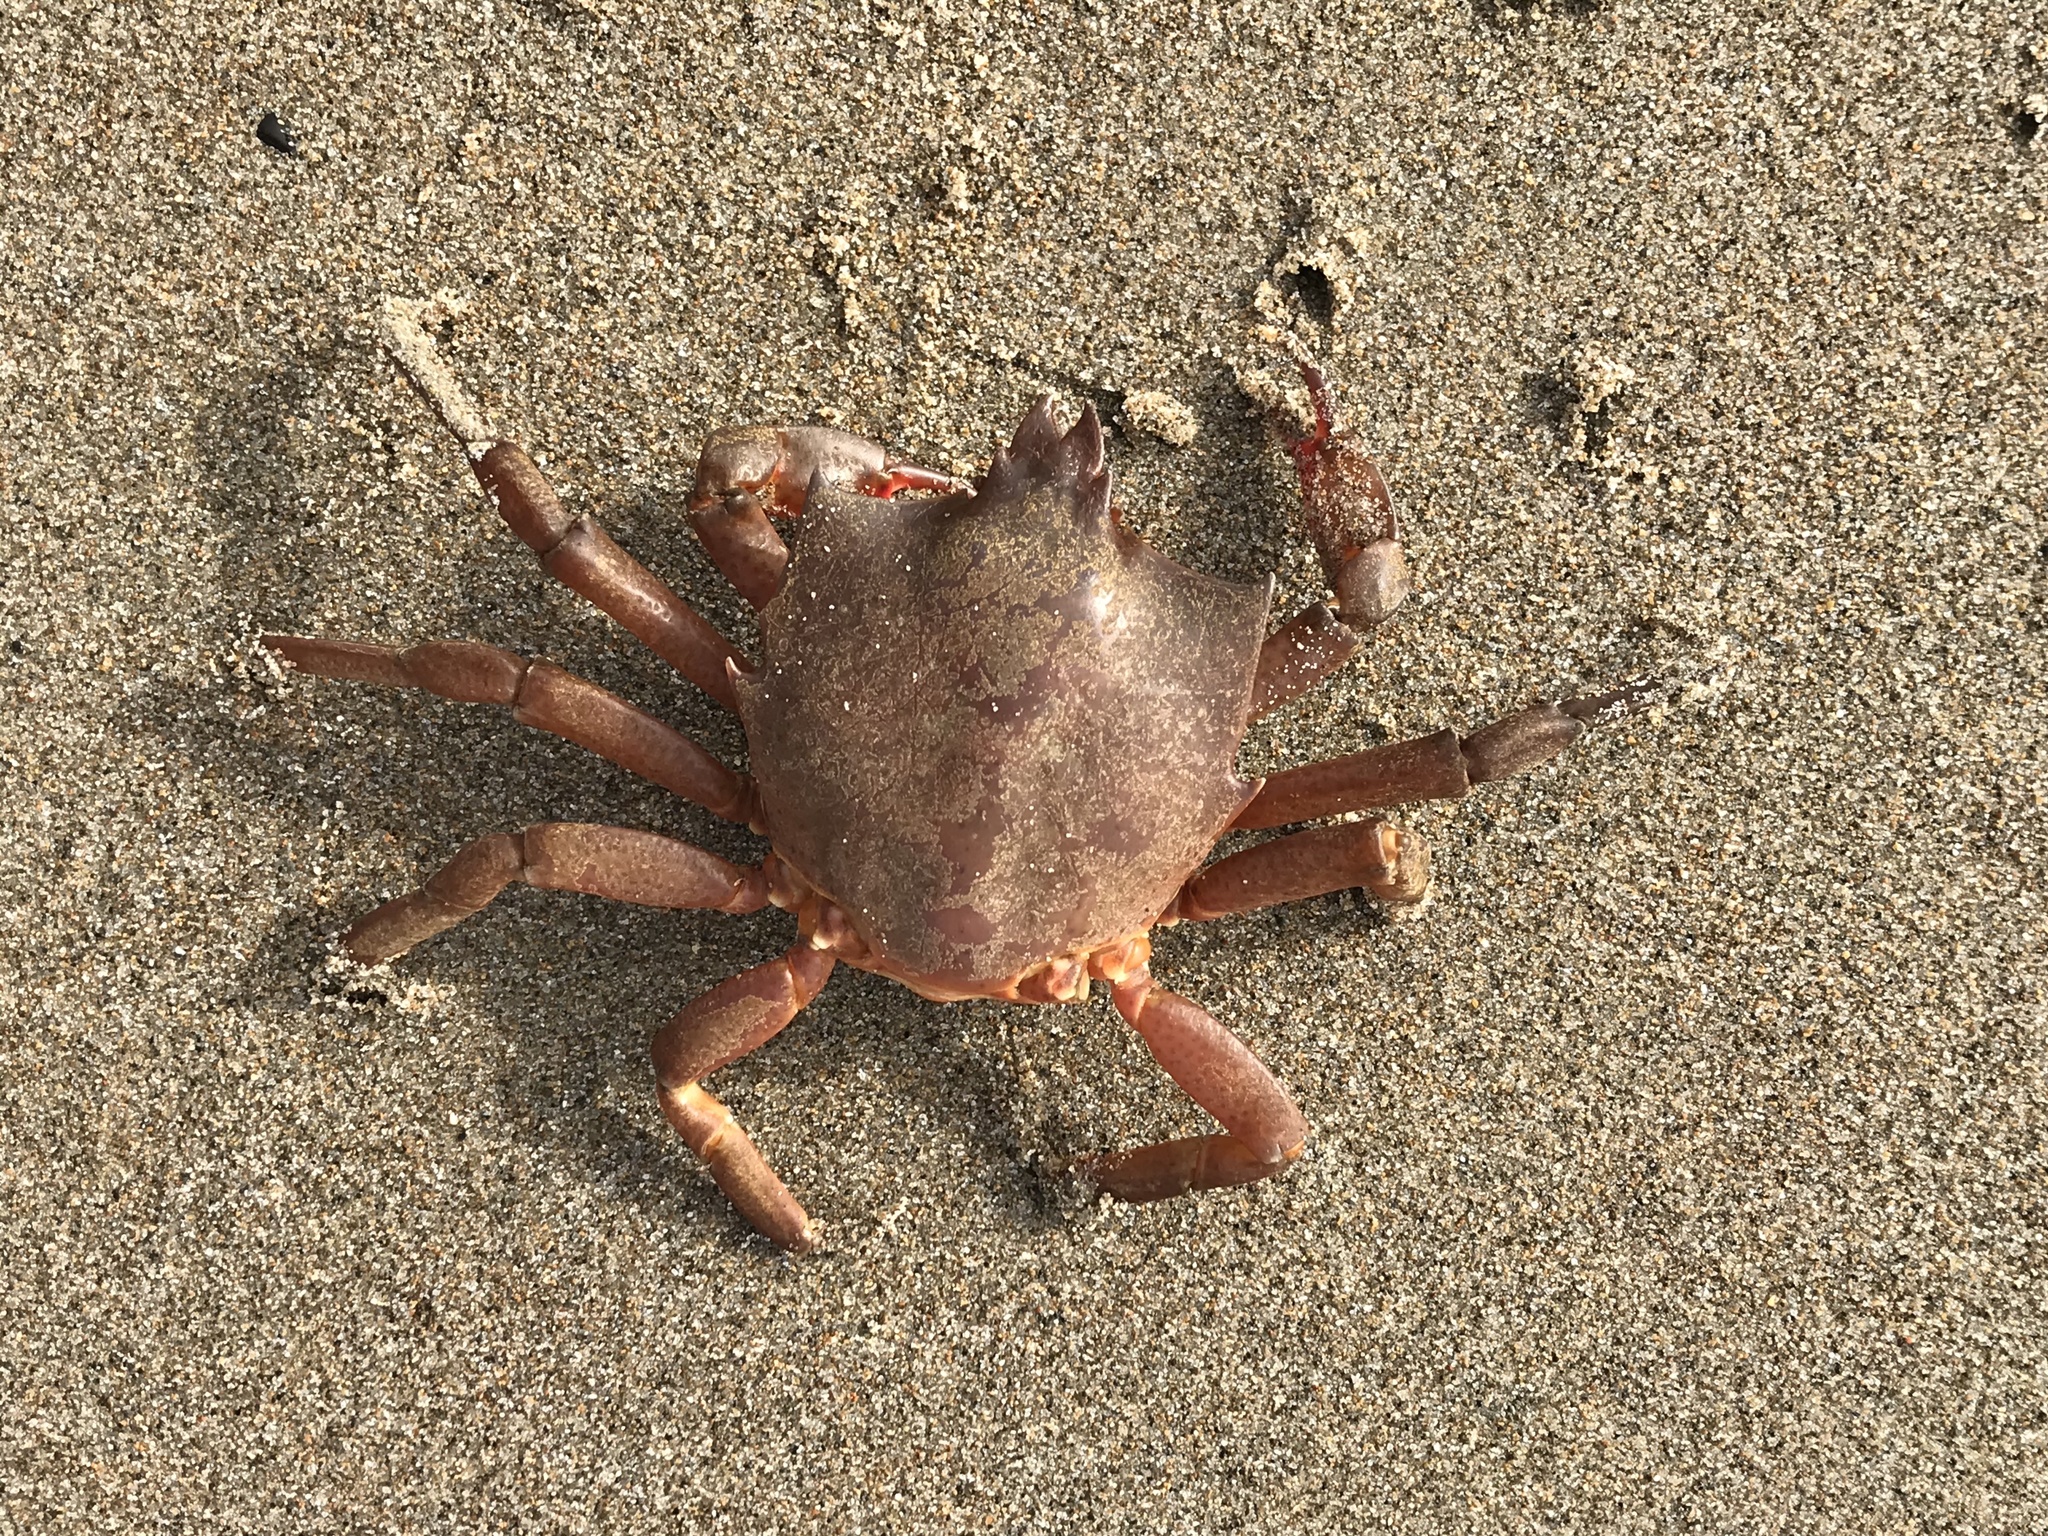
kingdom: Animalia
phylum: Arthropoda
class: Malacostraca
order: Decapoda
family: Epialtidae
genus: Pugettia
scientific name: Pugettia producta
